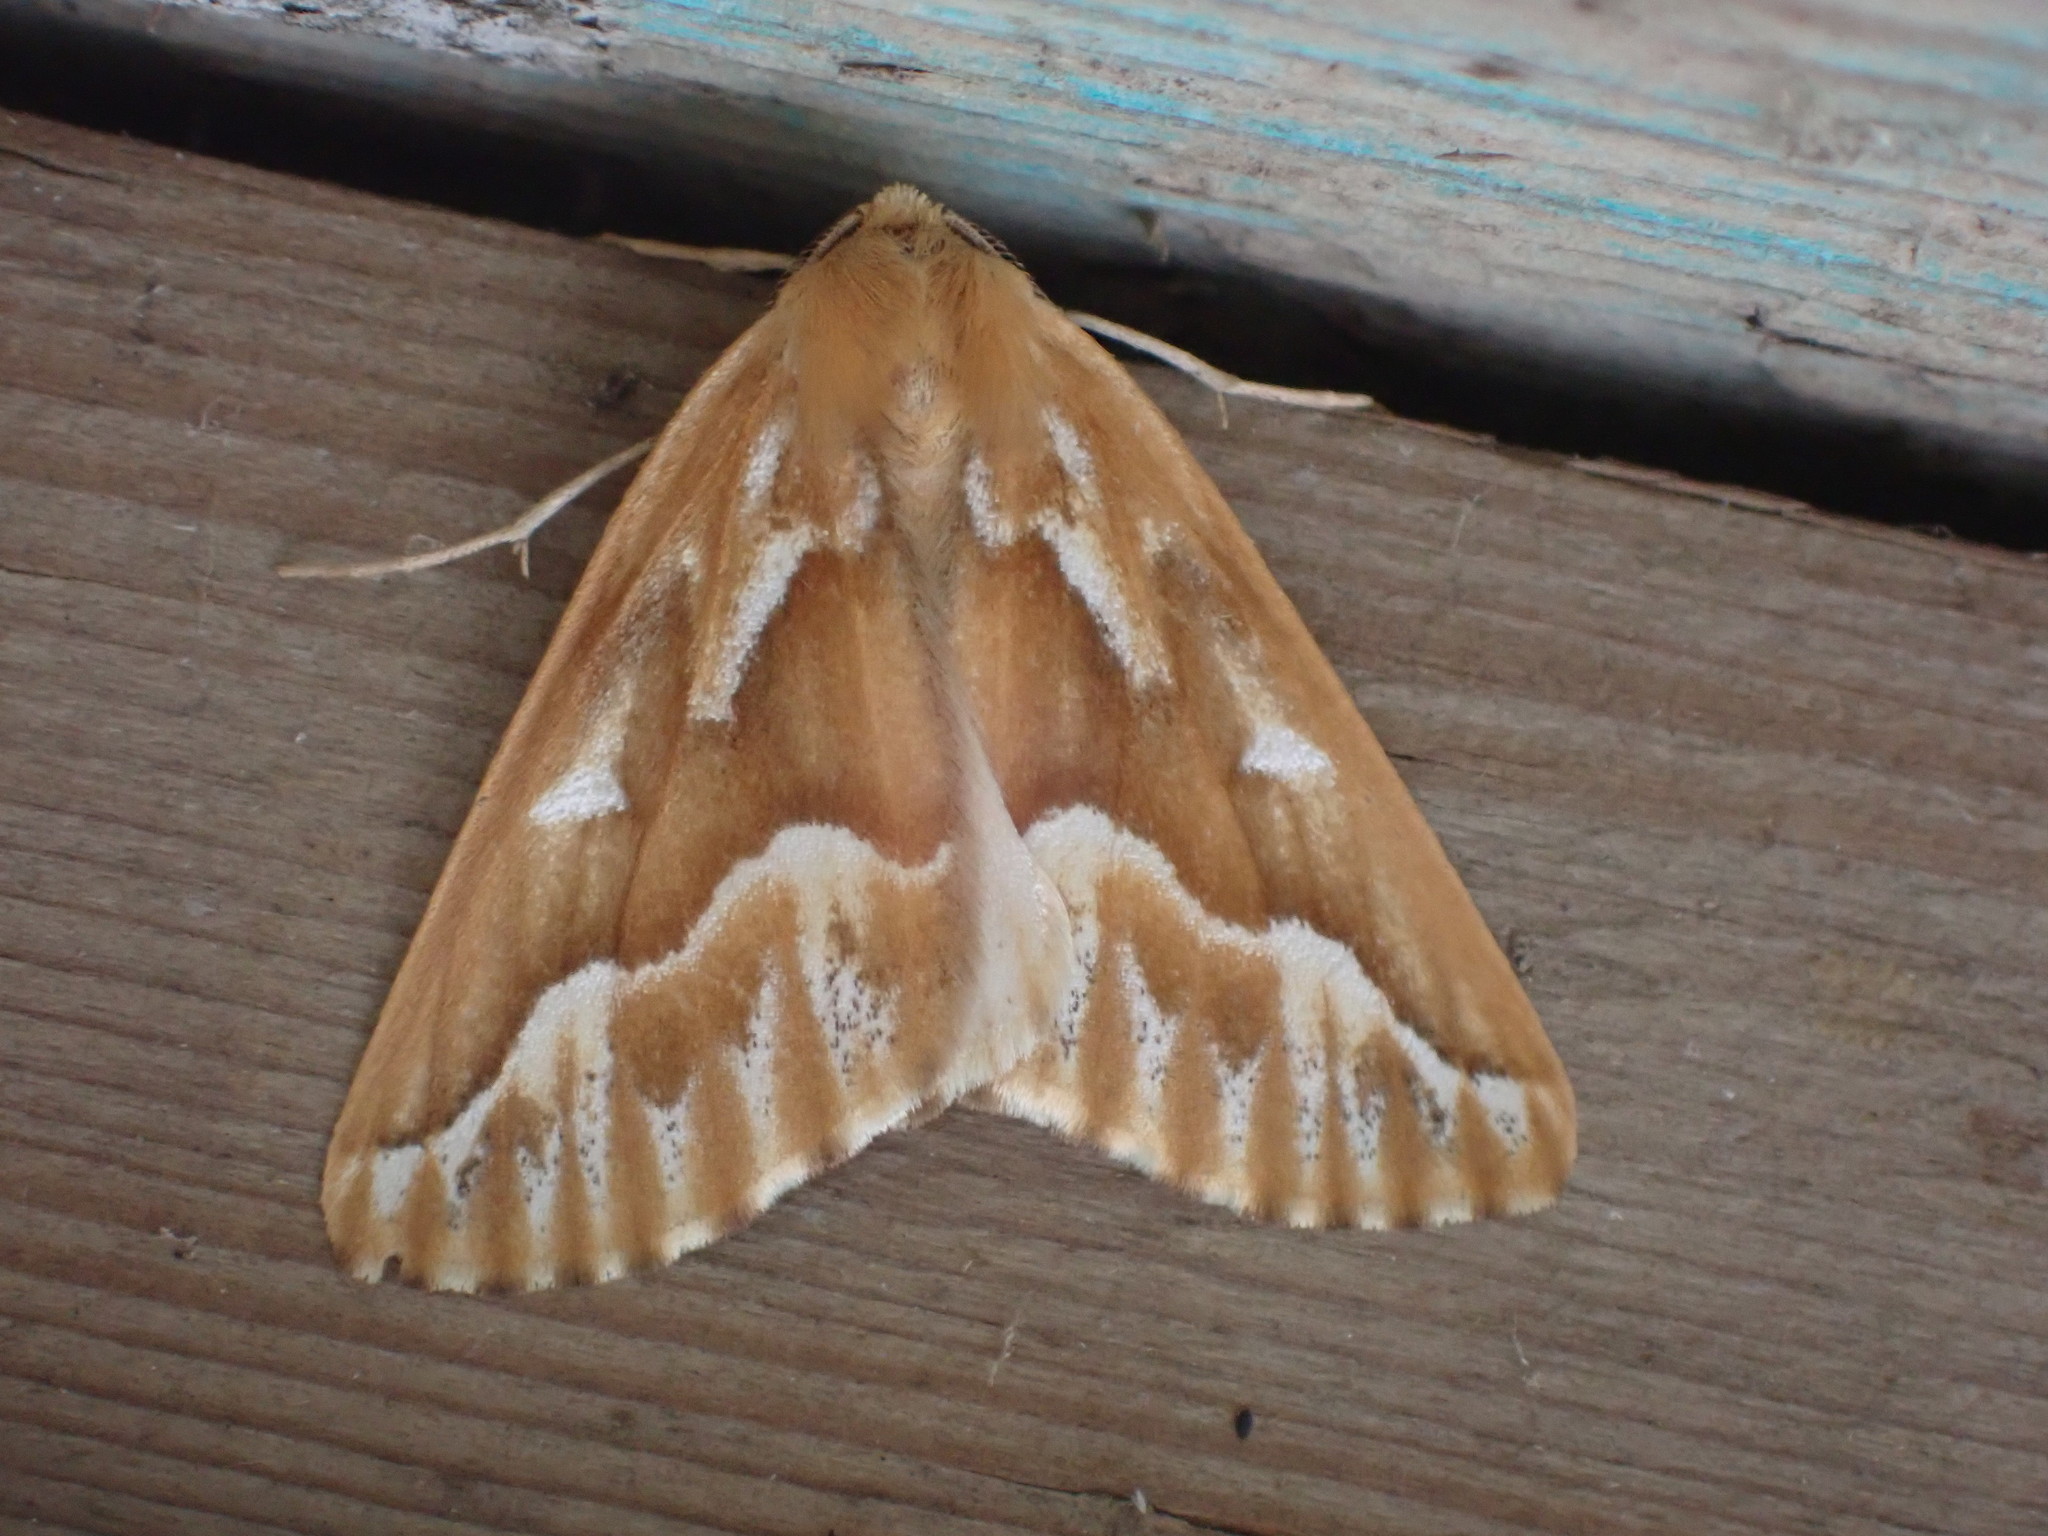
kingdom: Animalia
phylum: Arthropoda
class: Insecta
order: Lepidoptera
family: Geometridae
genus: Caripeta
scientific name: Caripeta piniata
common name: Northern pine looper moth
